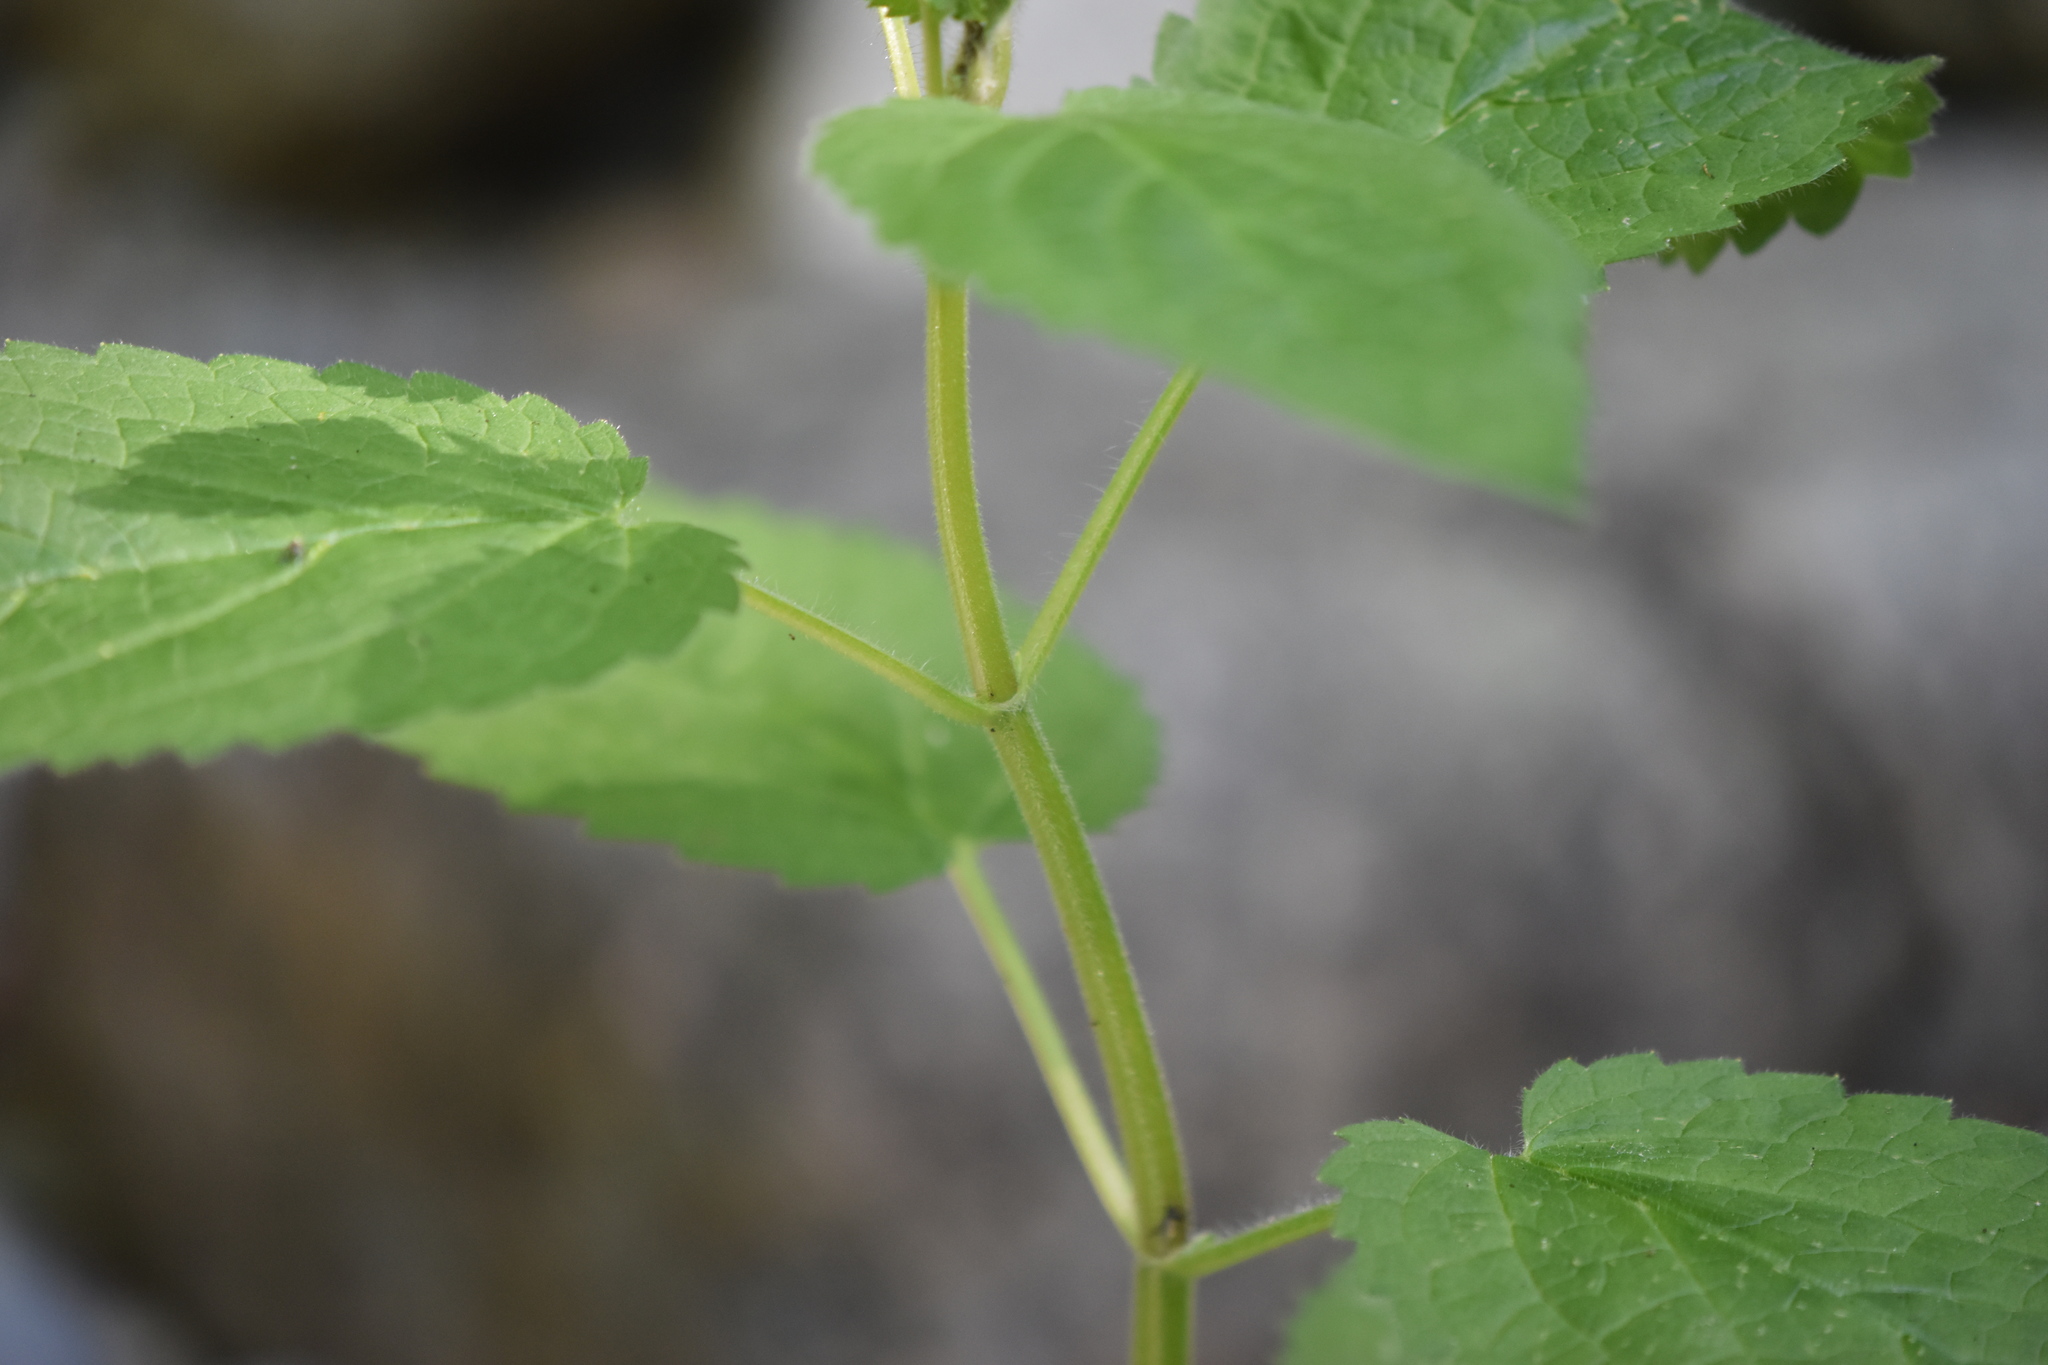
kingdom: Plantae
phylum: Tracheophyta
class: Magnoliopsida
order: Lamiales
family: Lamiaceae
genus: Stachys
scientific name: Stachys chamissonis
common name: Coastal hedge-nettle
